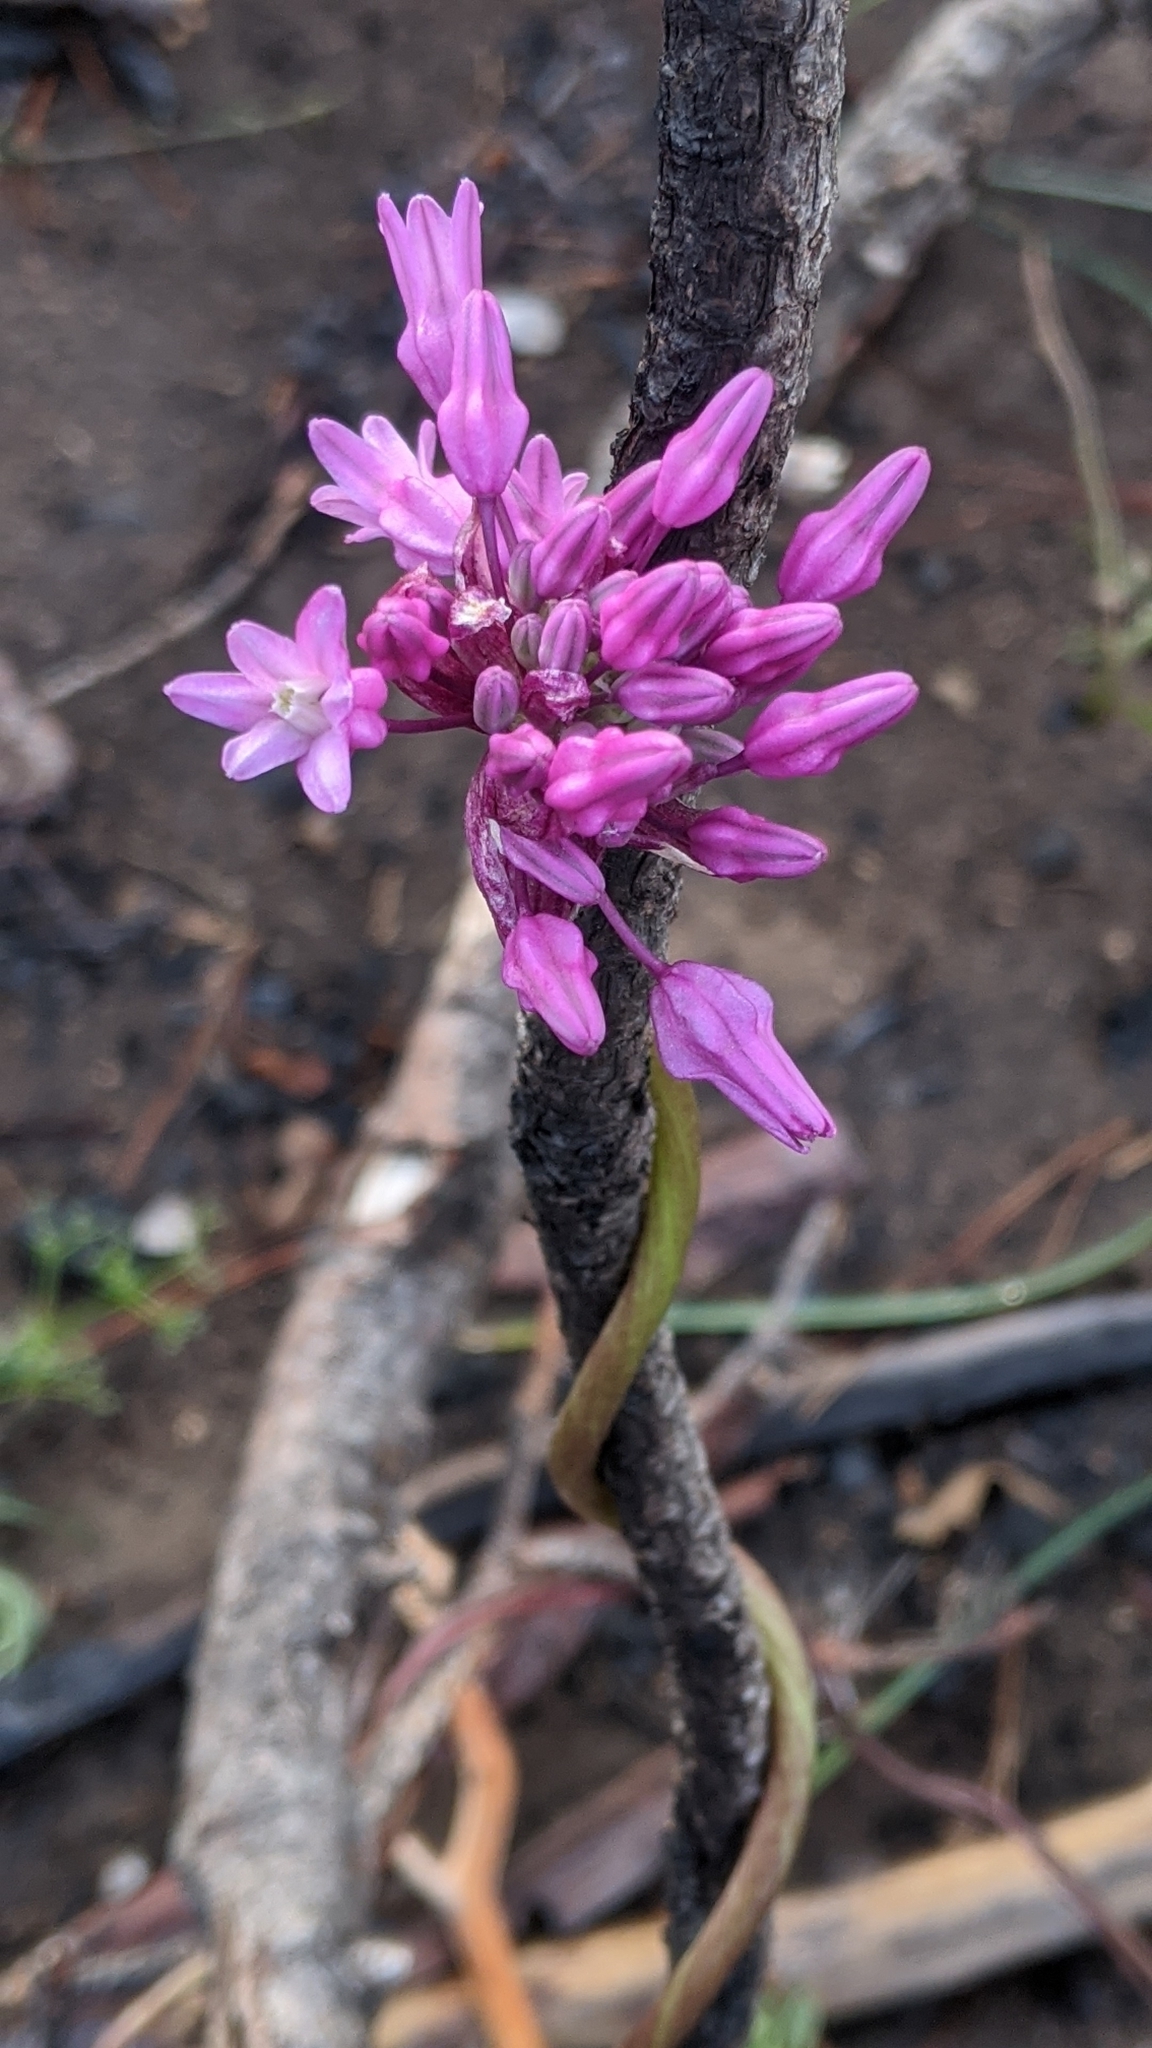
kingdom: Plantae
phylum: Tracheophyta
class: Liliopsida
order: Asparagales
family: Asparagaceae
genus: Dichelostemma
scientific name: Dichelostemma volubile
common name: Trining brodiaea
